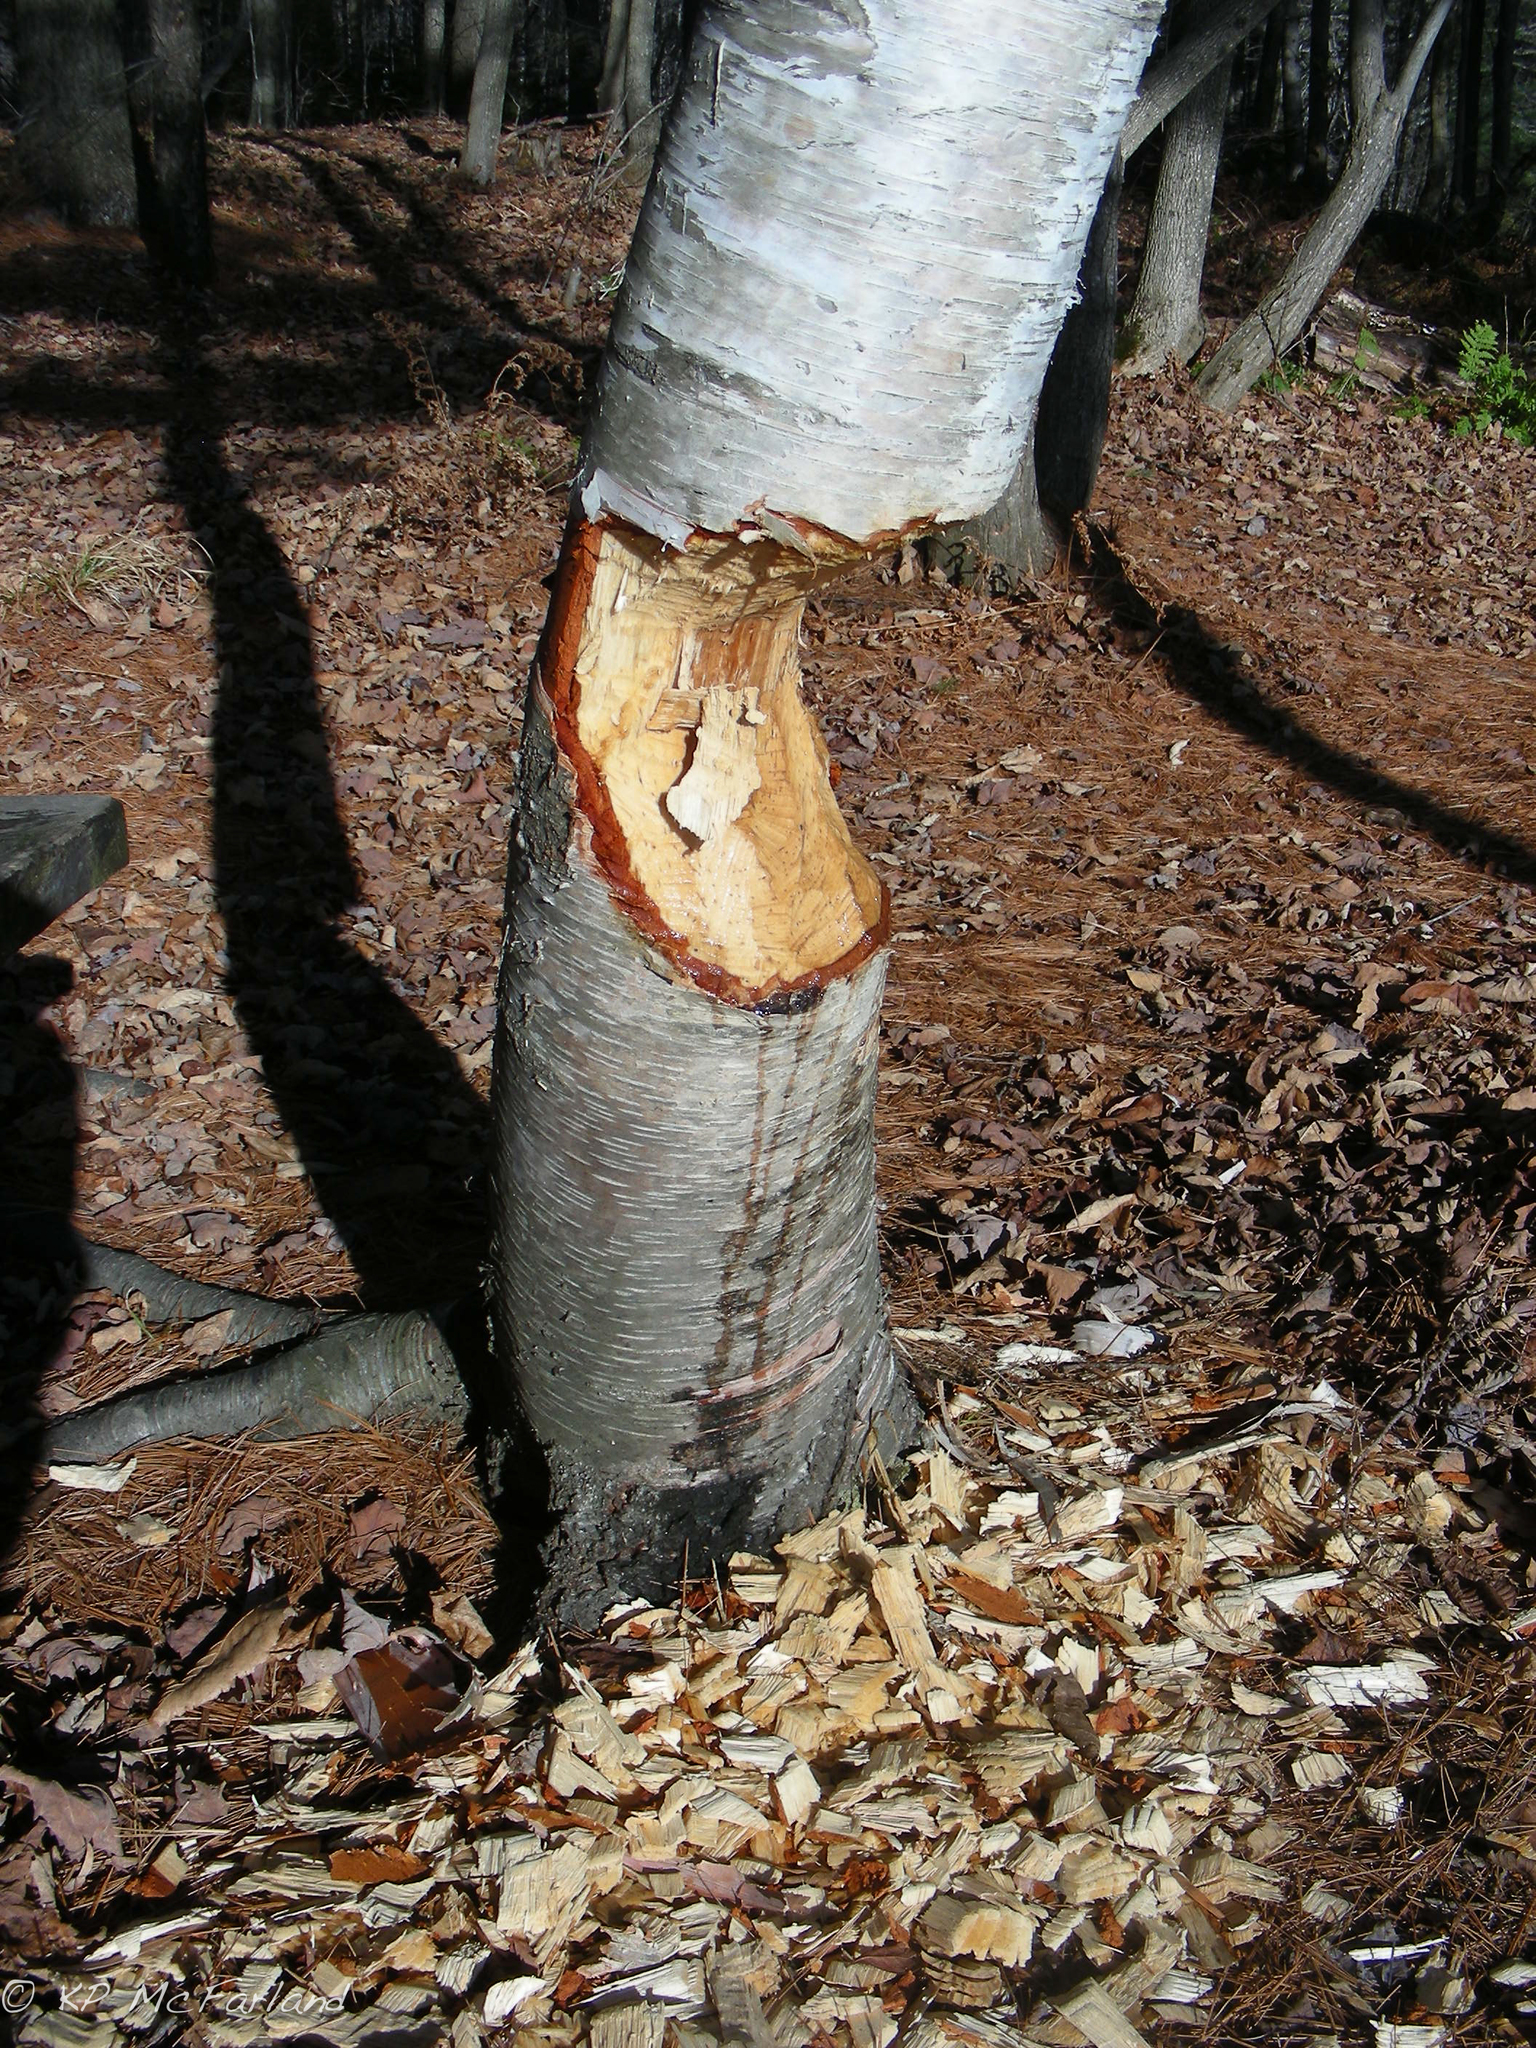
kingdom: Animalia
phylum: Chordata
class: Mammalia
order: Rodentia
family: Castoridae
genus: Castor
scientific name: Castor canadensis
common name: American beaver
